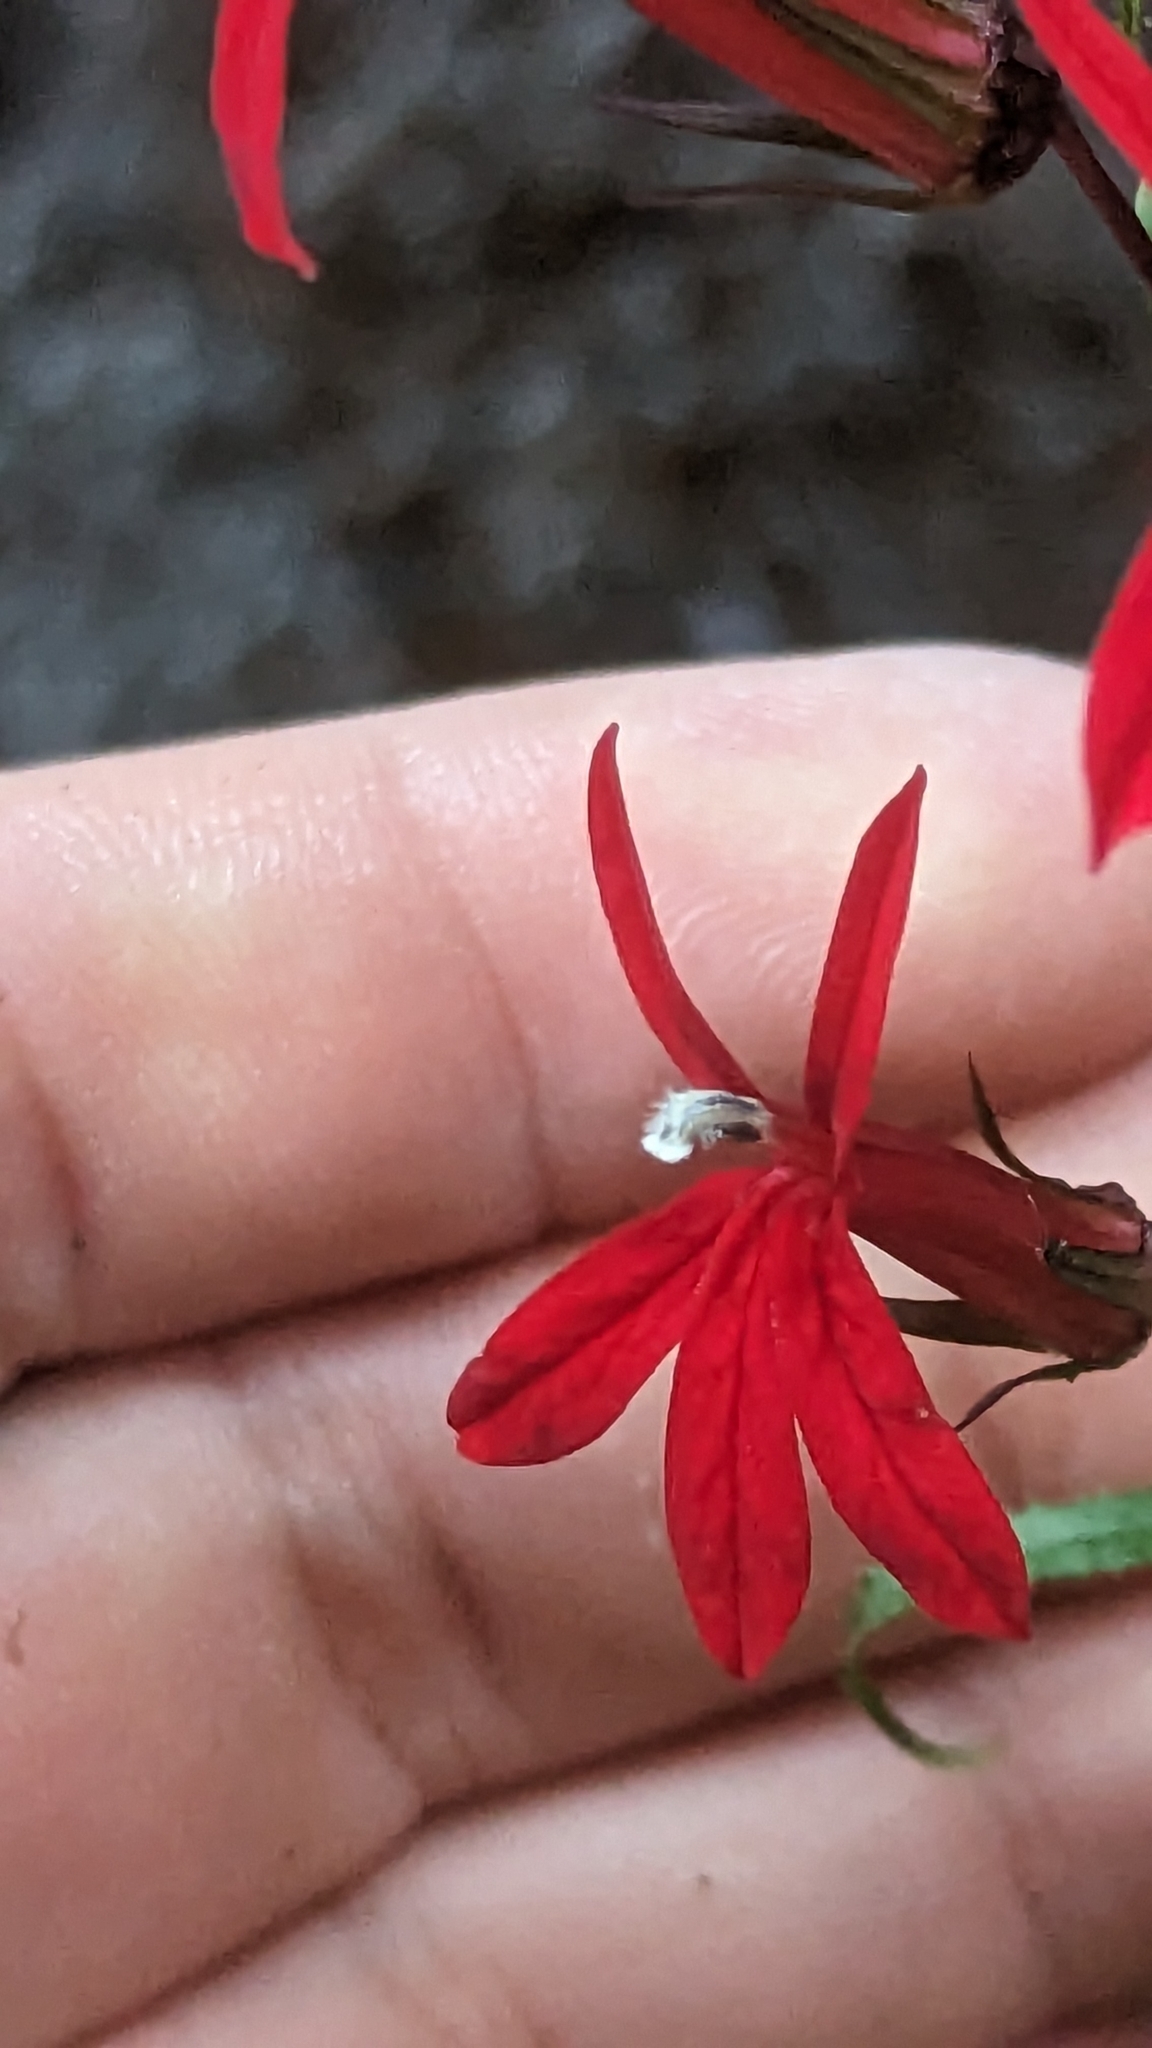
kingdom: Plantae
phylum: Tracheophyta
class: Magnoliopsida
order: Asterales
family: Campanulaceae
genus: Lobelia
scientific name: Lobelia cardinalis
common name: Cardinal flower
